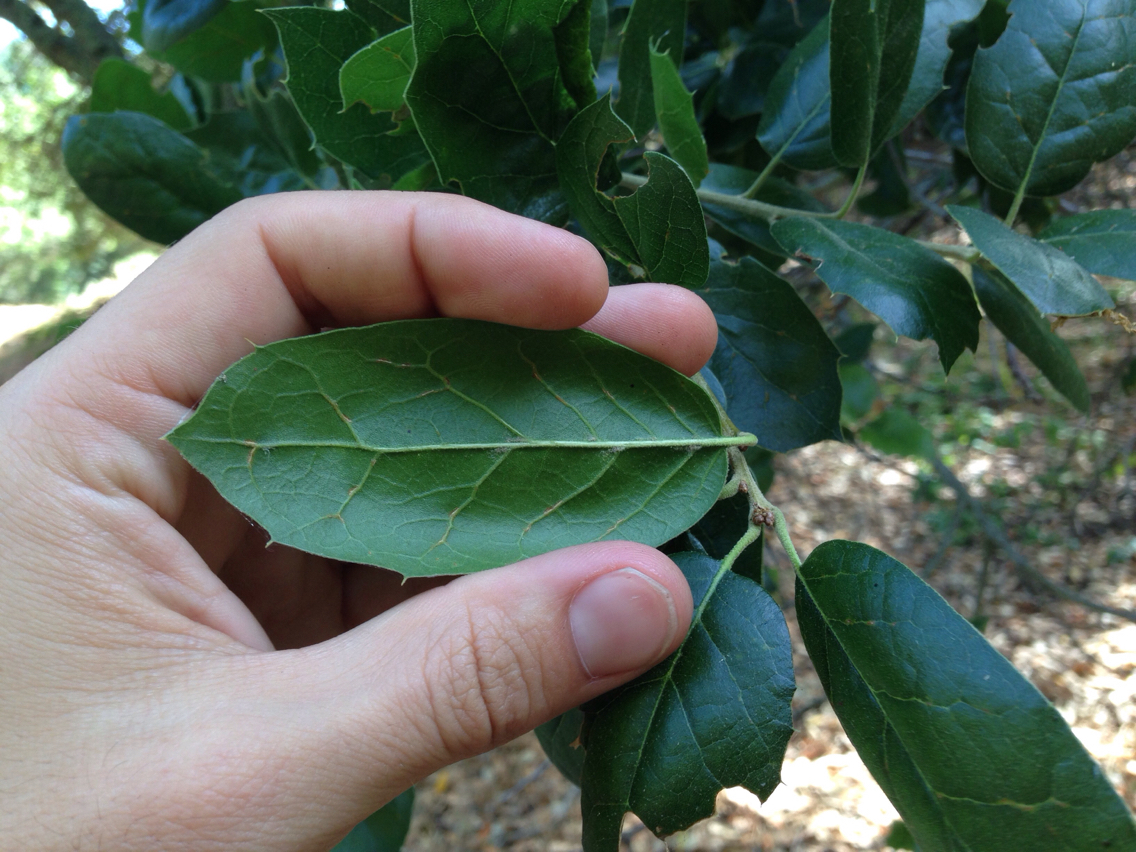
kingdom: Plantae
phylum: Tracheophyta
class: Magnoliopsida
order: Fagales
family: Fagaceae
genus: Quercus
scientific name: Quercus agrifolia
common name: California live oak
